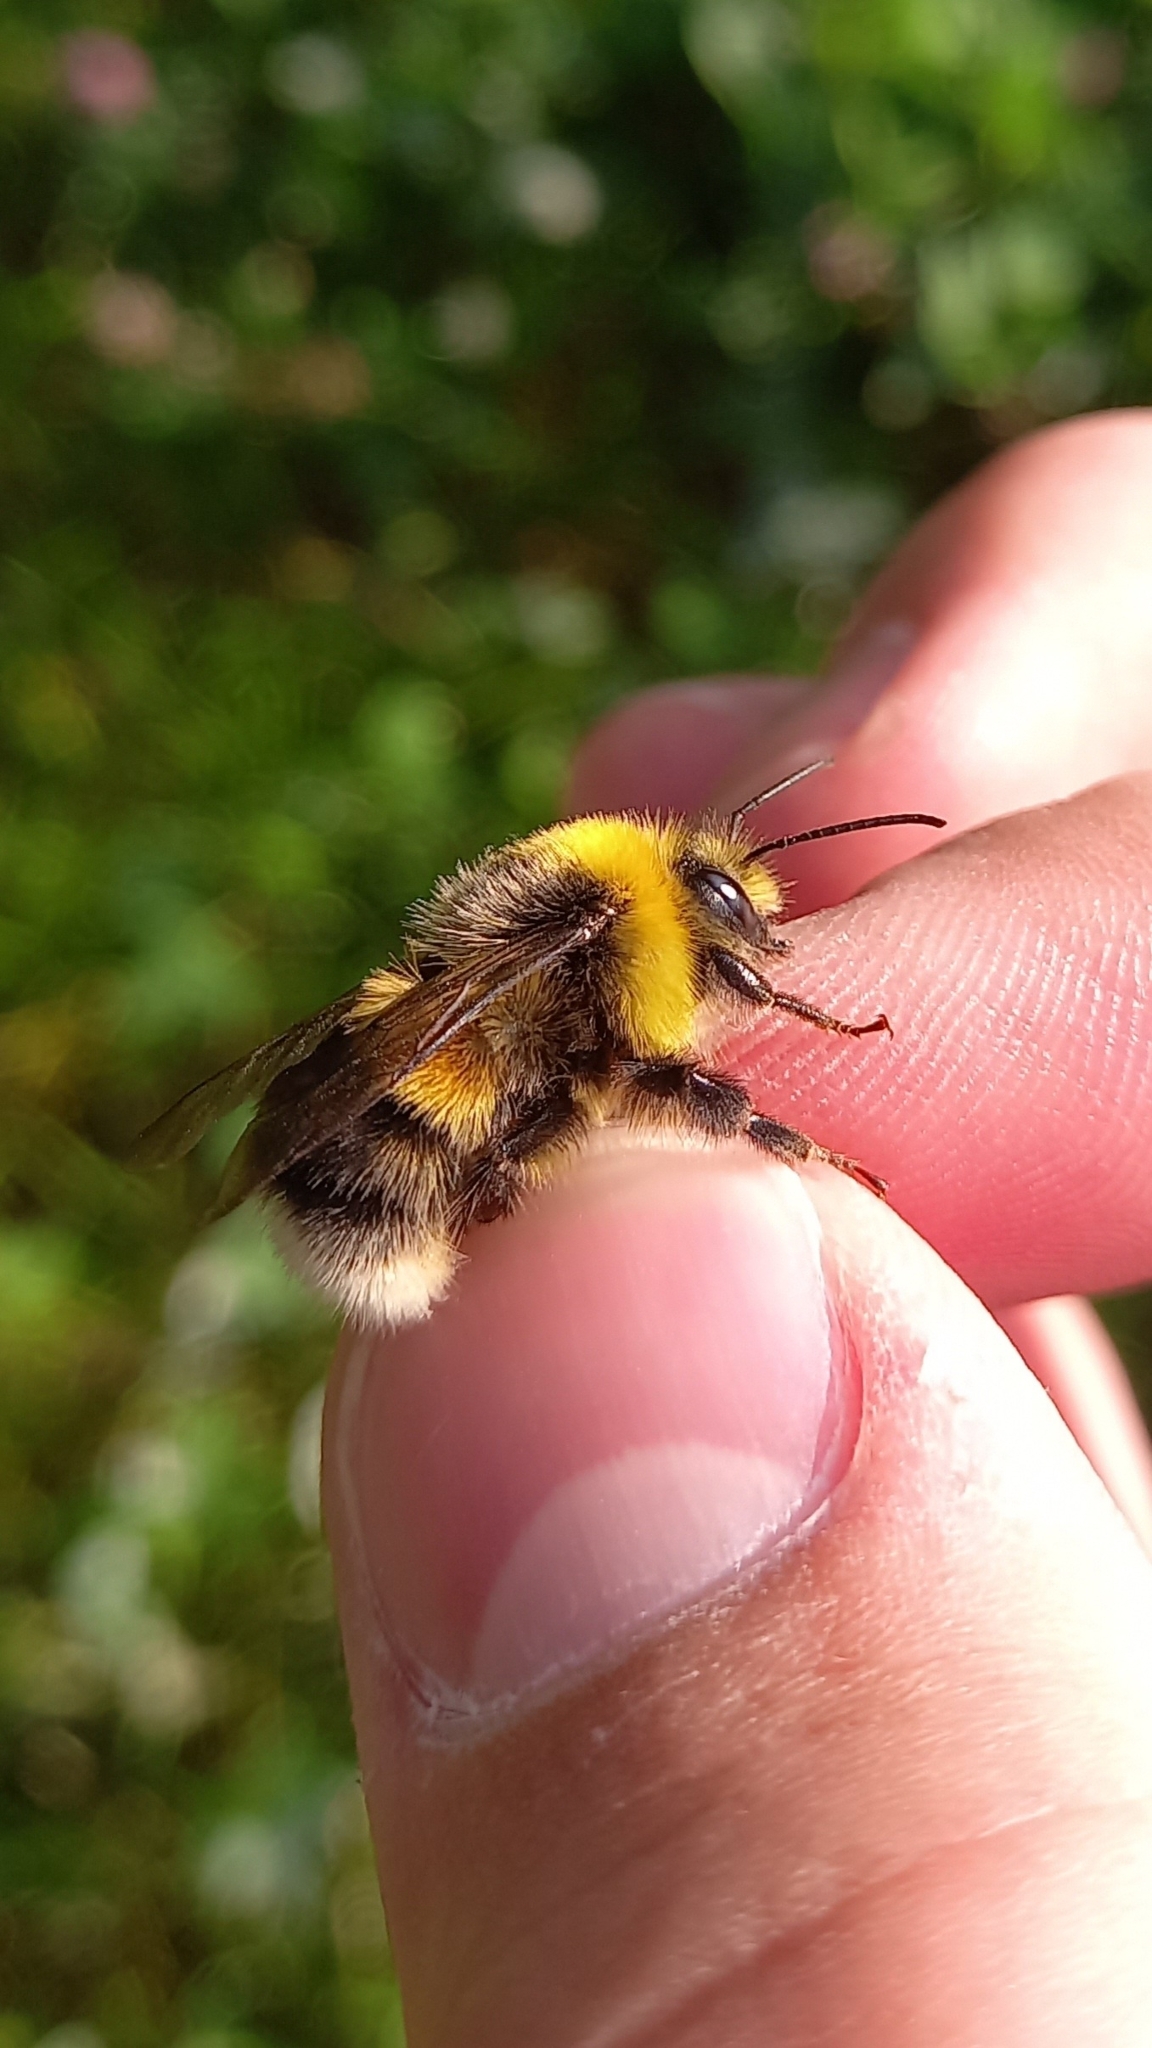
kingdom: Animalia
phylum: Arthropoda
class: Insecta
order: Hymenoptera
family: Apidae
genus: Bombus
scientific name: Bombus lucorum
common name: White-tailed bumblebee
